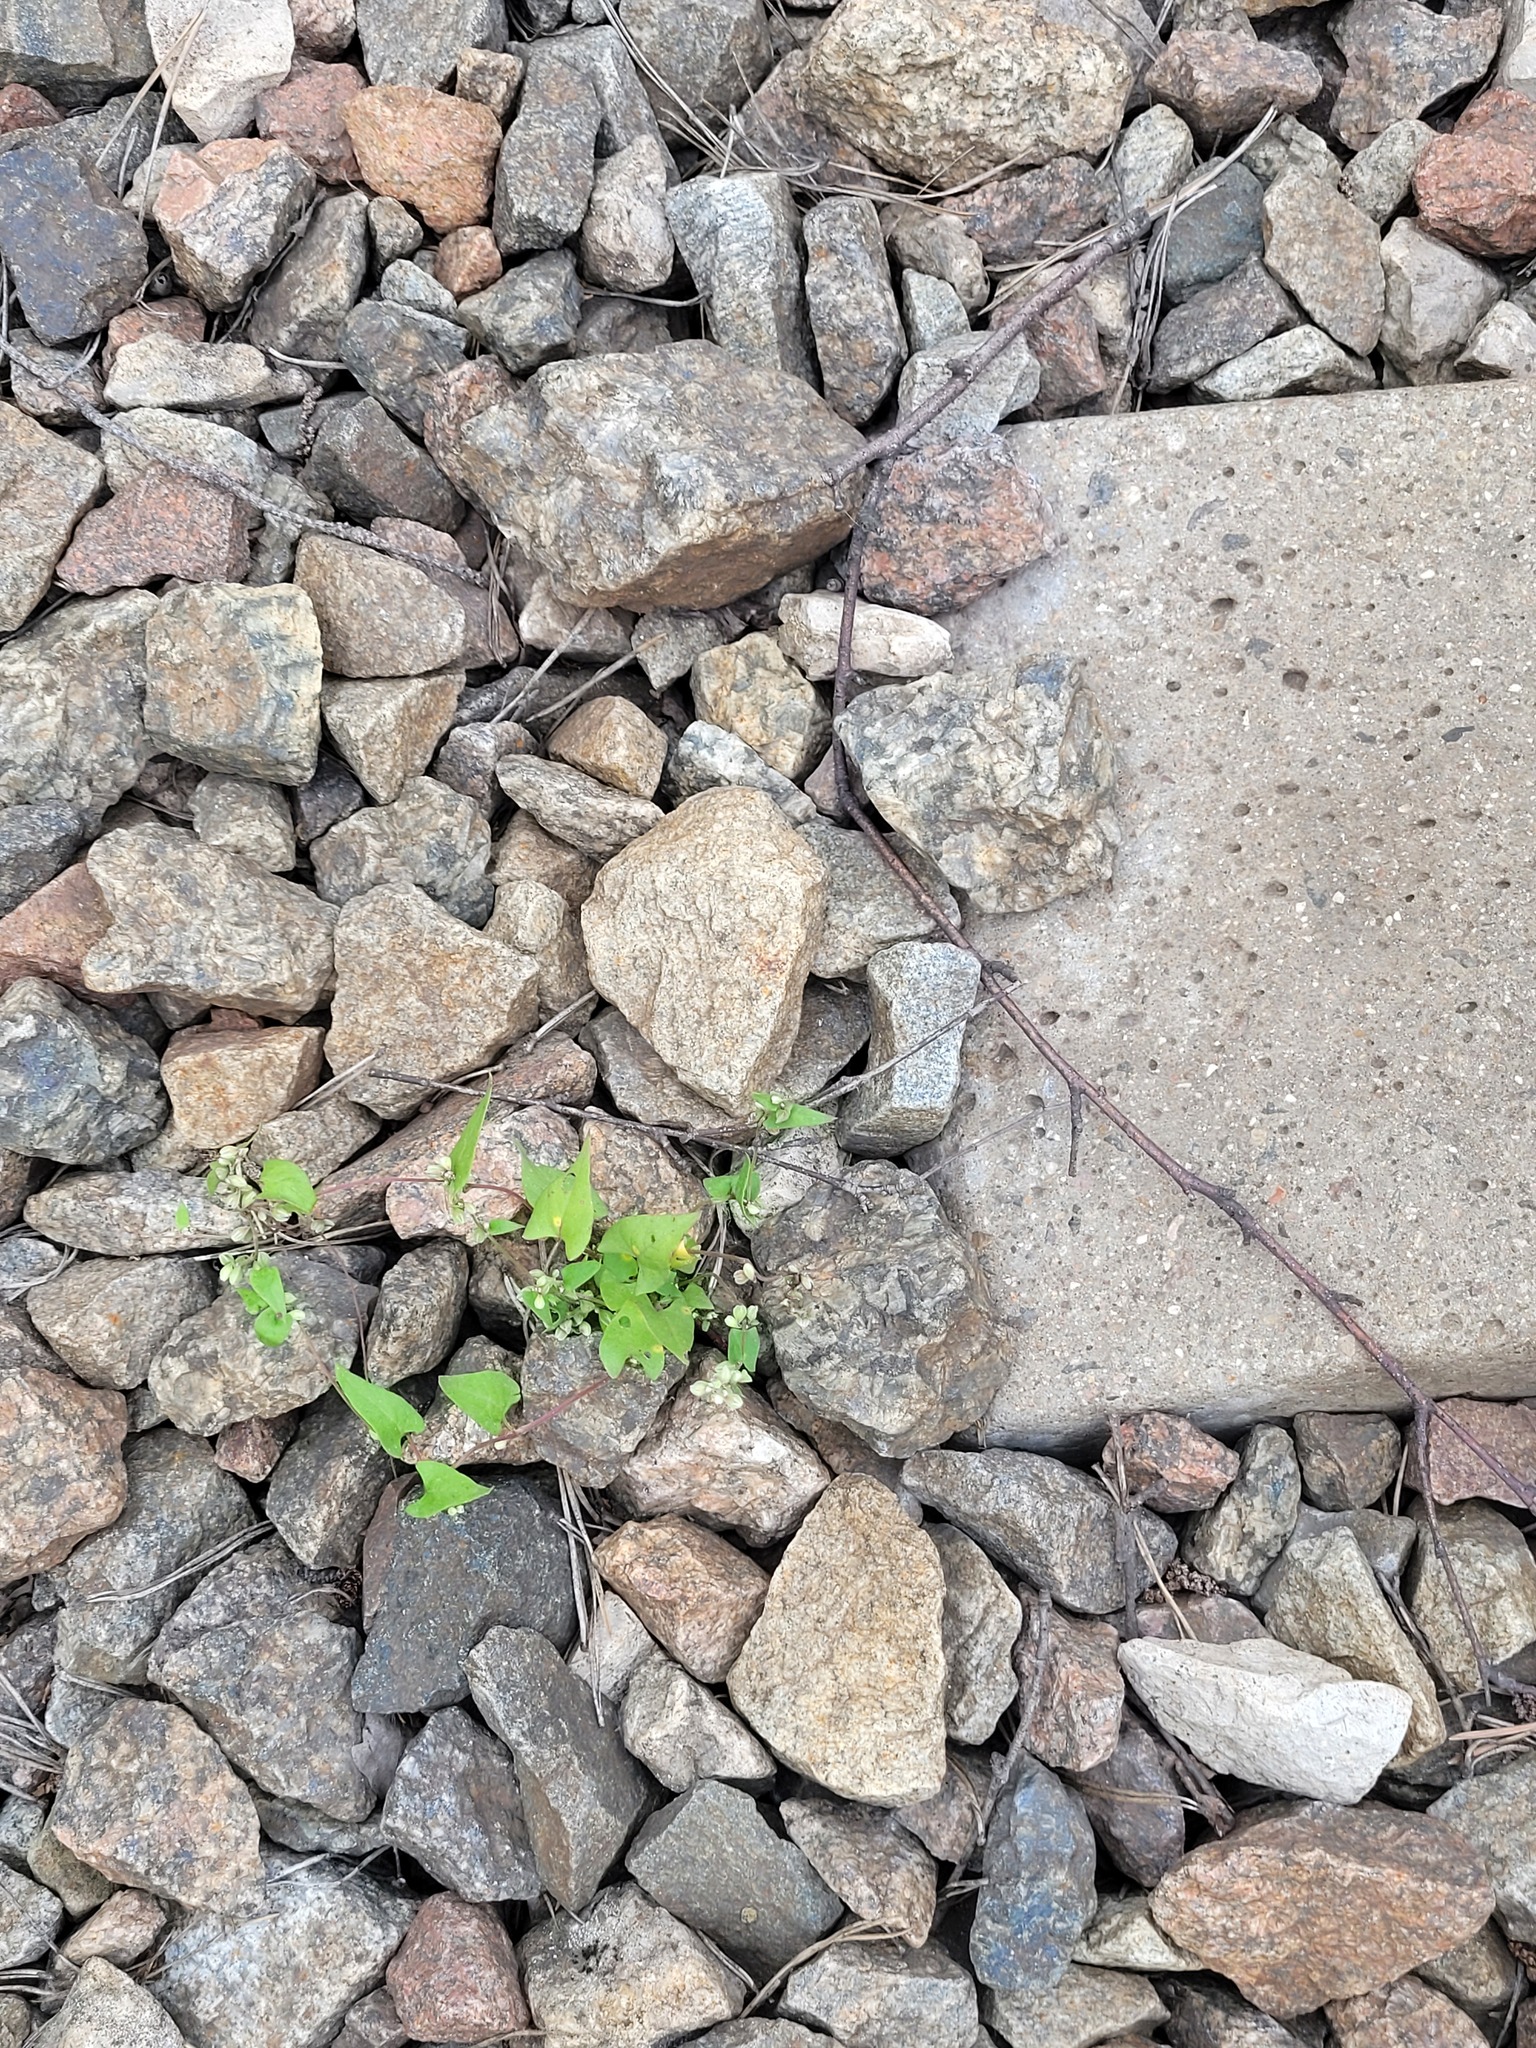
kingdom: Plantae
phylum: Tracheophyta
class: Magnoliopsida
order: Caryophyllales
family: Polygonaceae
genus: Fallopia
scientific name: Fallopia convolvulus
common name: Black bindweed
